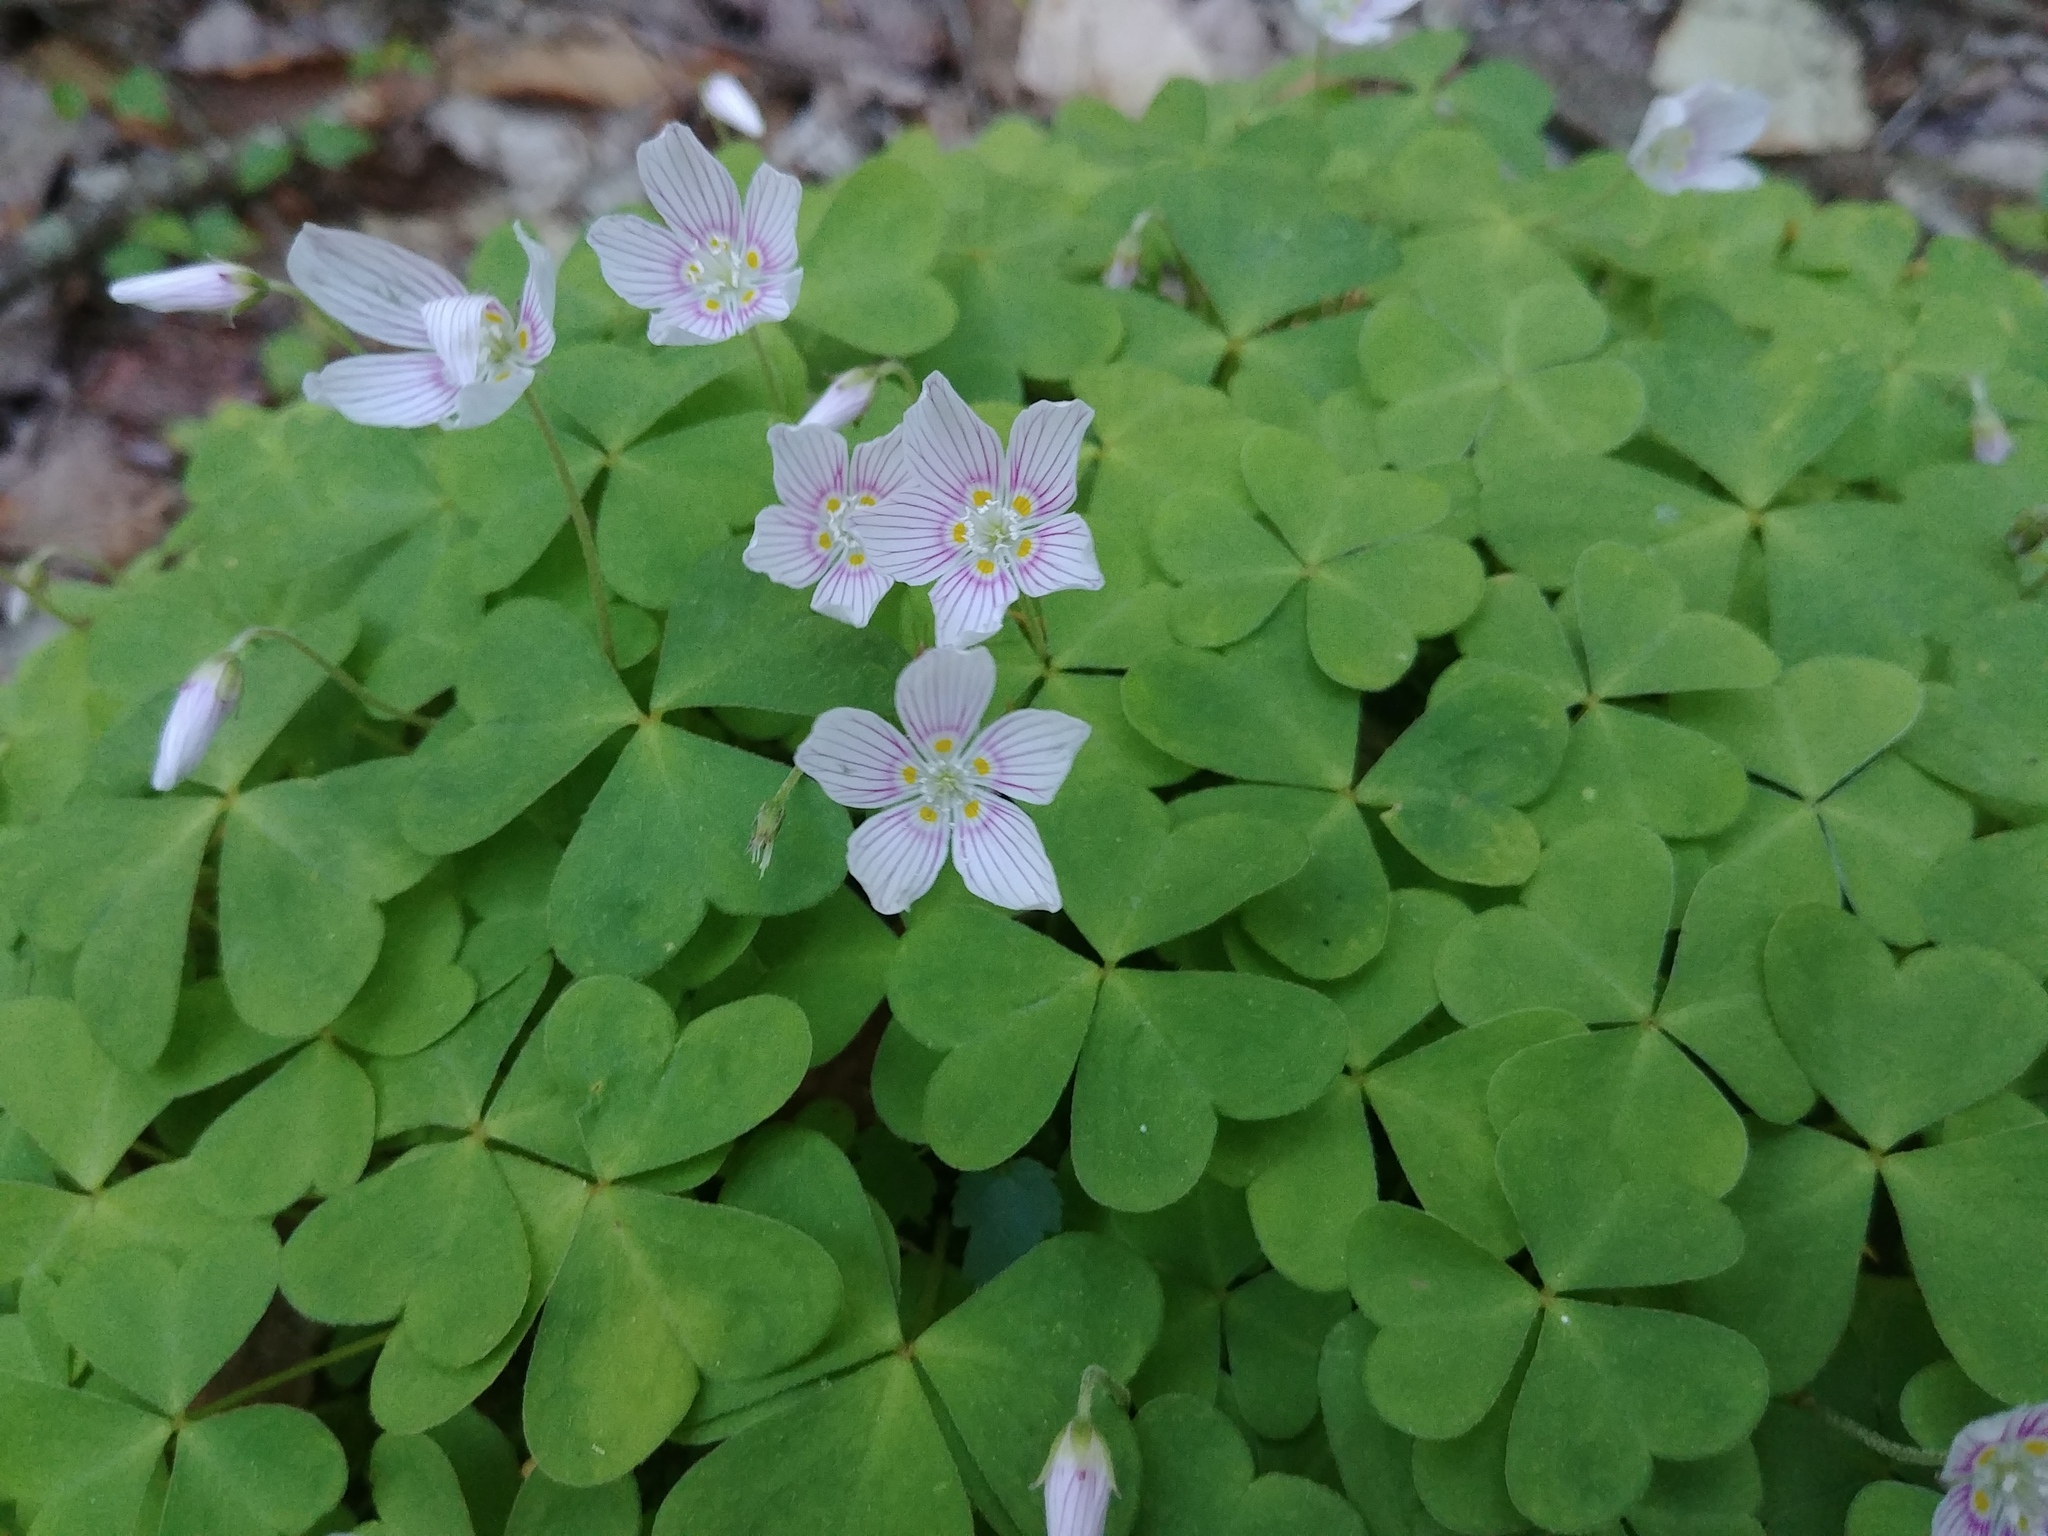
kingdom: Plantae
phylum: Tracheophyta
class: Magnoliopsida
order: Oxalidales
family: Oxalidaceae
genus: Oxalis
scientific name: Oxalis montana
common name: American wood-sorrel
